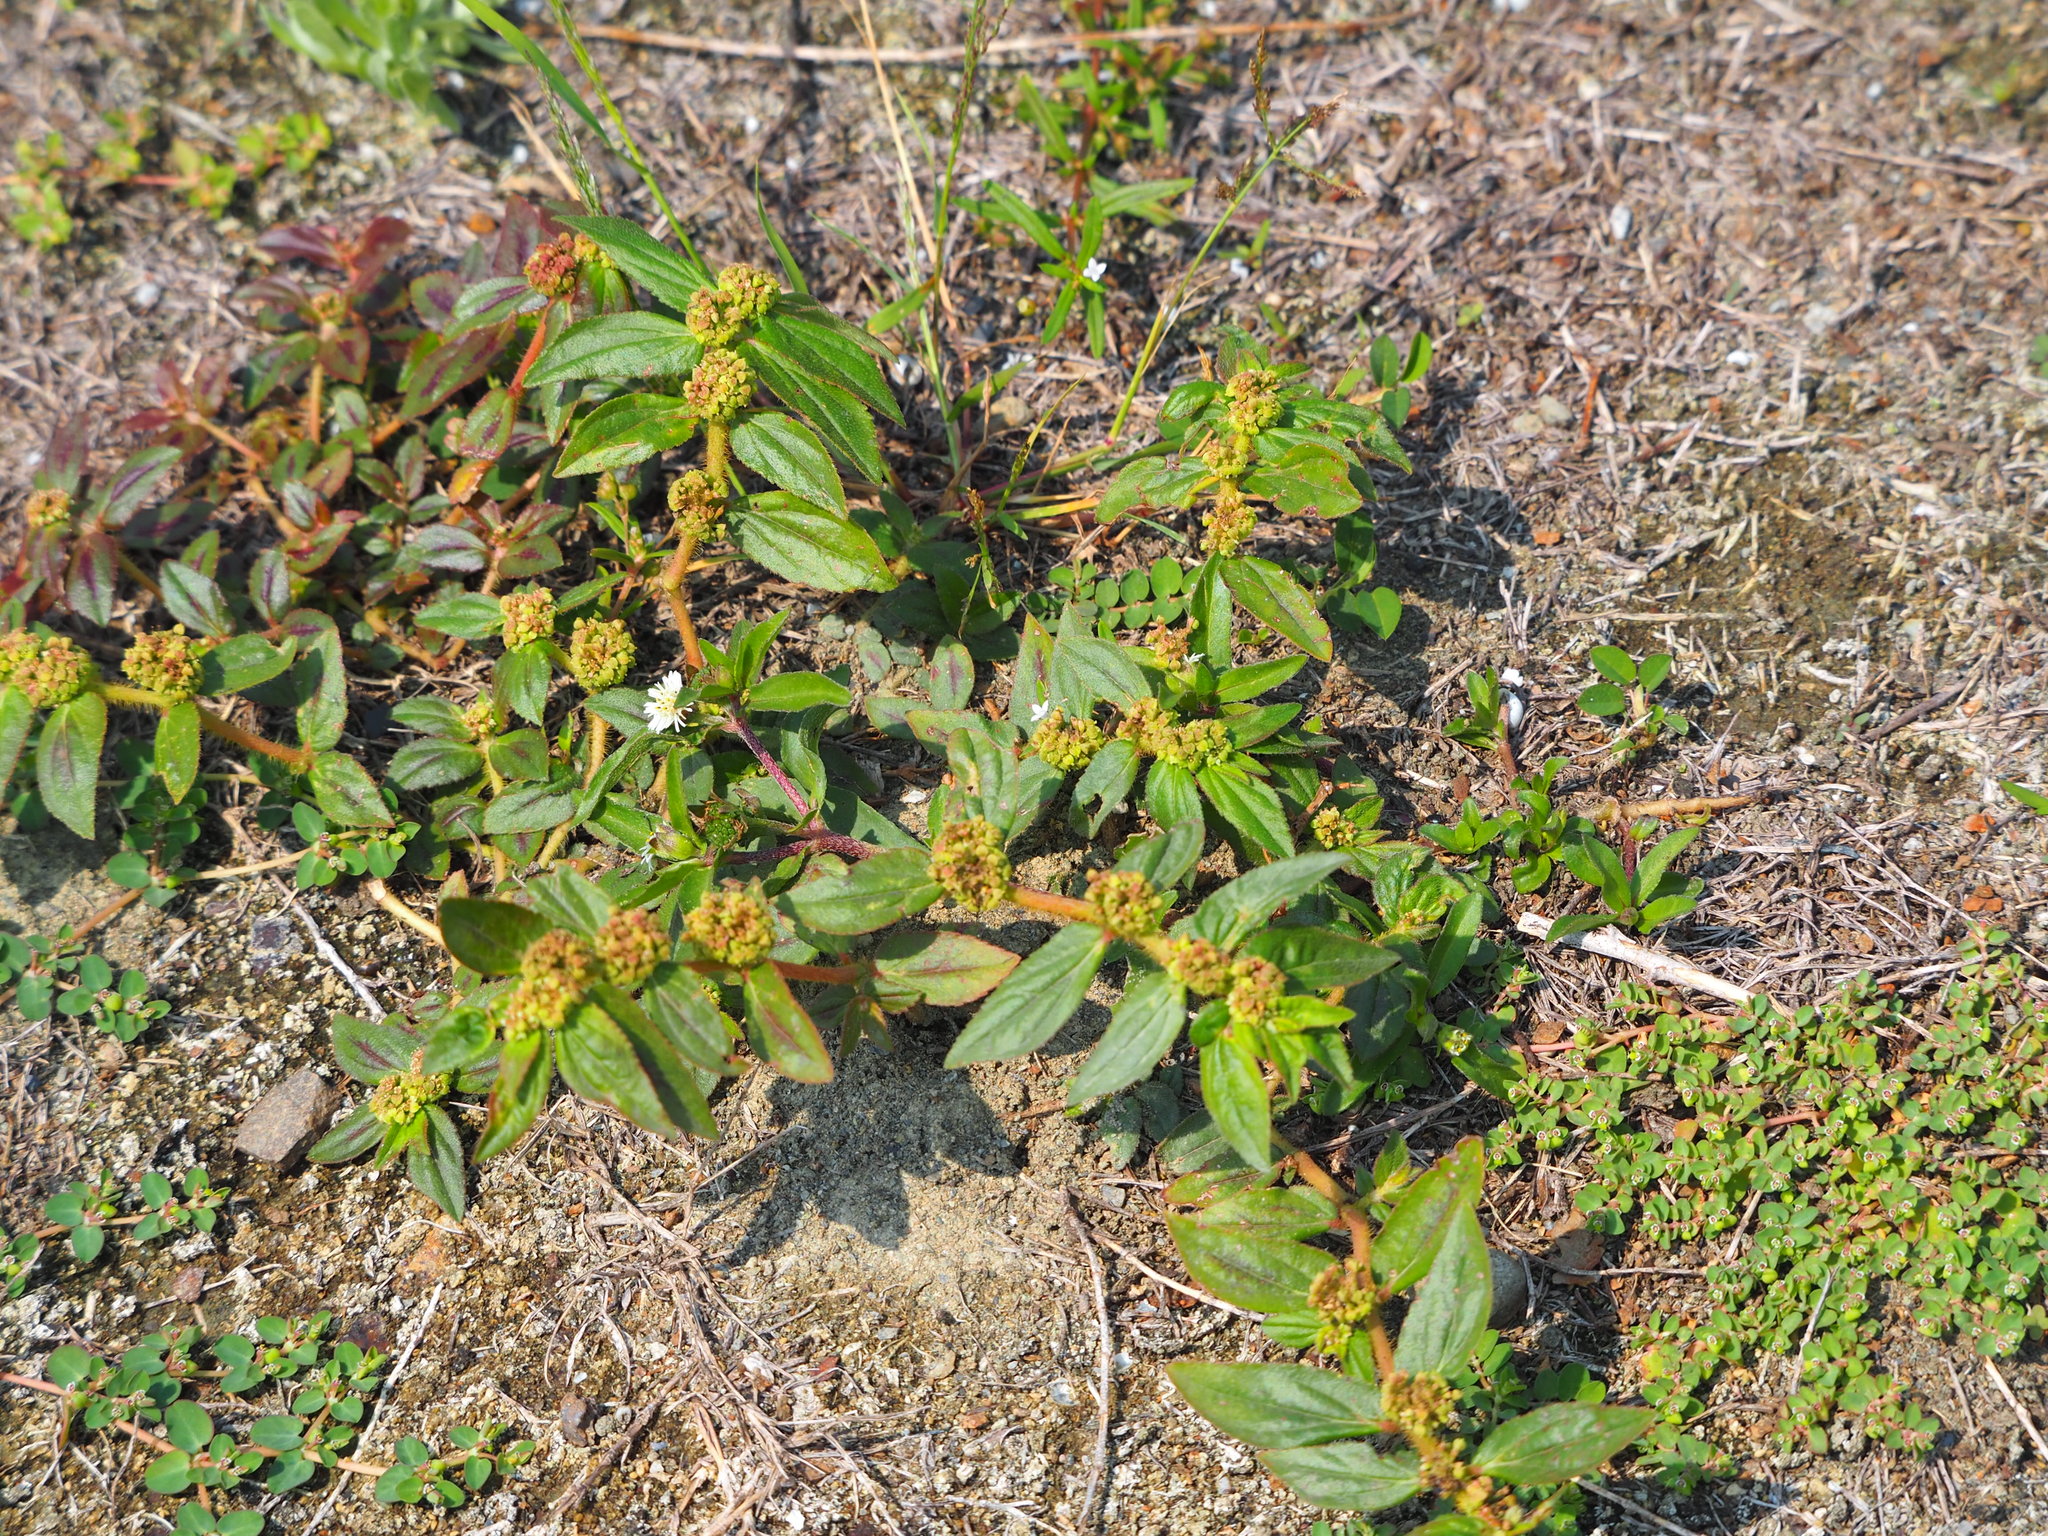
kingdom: Plantae
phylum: Tracheophyta
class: Magnoliopsida
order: Malpighiales
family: Euphorbiaceae
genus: Euphorbia
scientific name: Euphorbia hirta
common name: Pillpod sandmat
